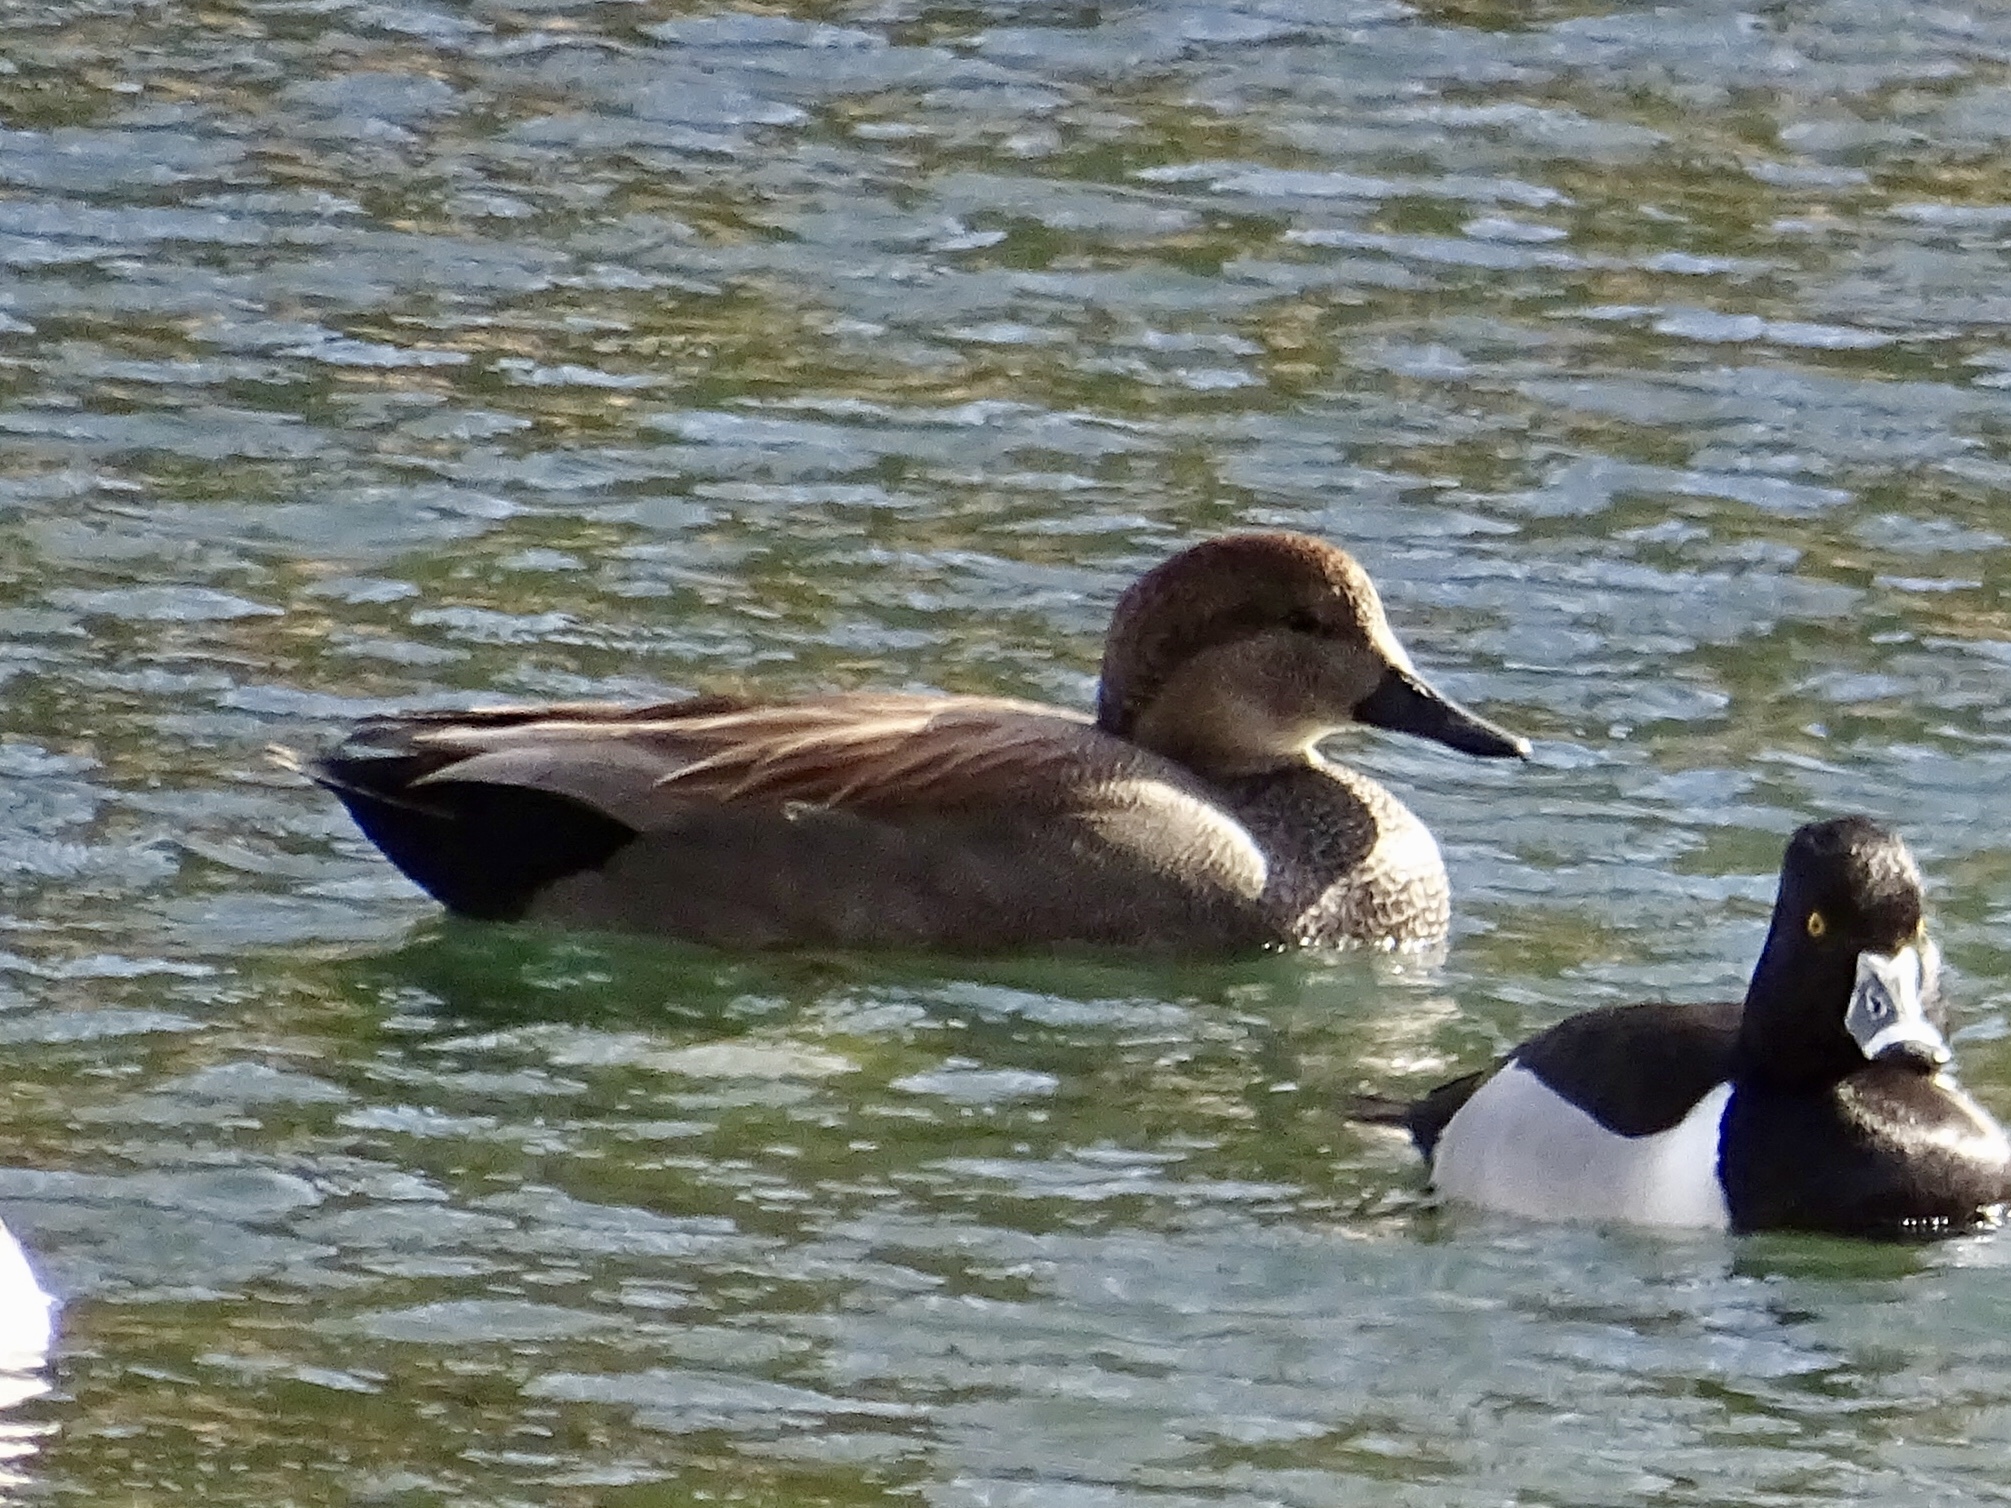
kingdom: Animalia
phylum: Chordata
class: Aves
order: Anseriformes
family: Anatidae
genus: Mareca
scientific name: Mareca strepera
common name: Gadwall
